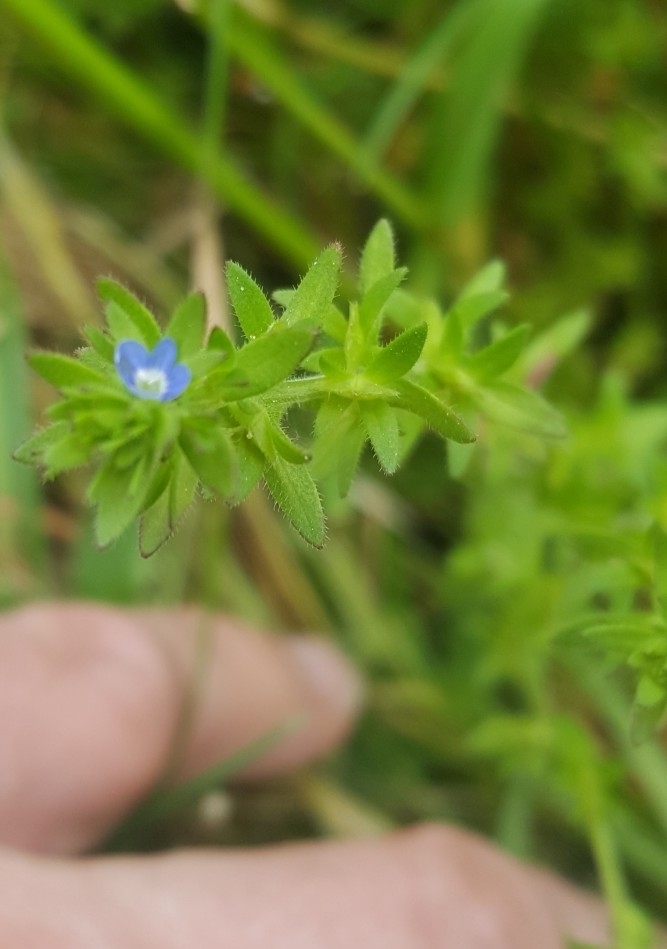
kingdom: Plantae
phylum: Tracheophyta
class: Magnoliopsida
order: Lamiales
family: Plantaginaceae
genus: Veronica
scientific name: Veronica arvensis
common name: Corn speedwell
